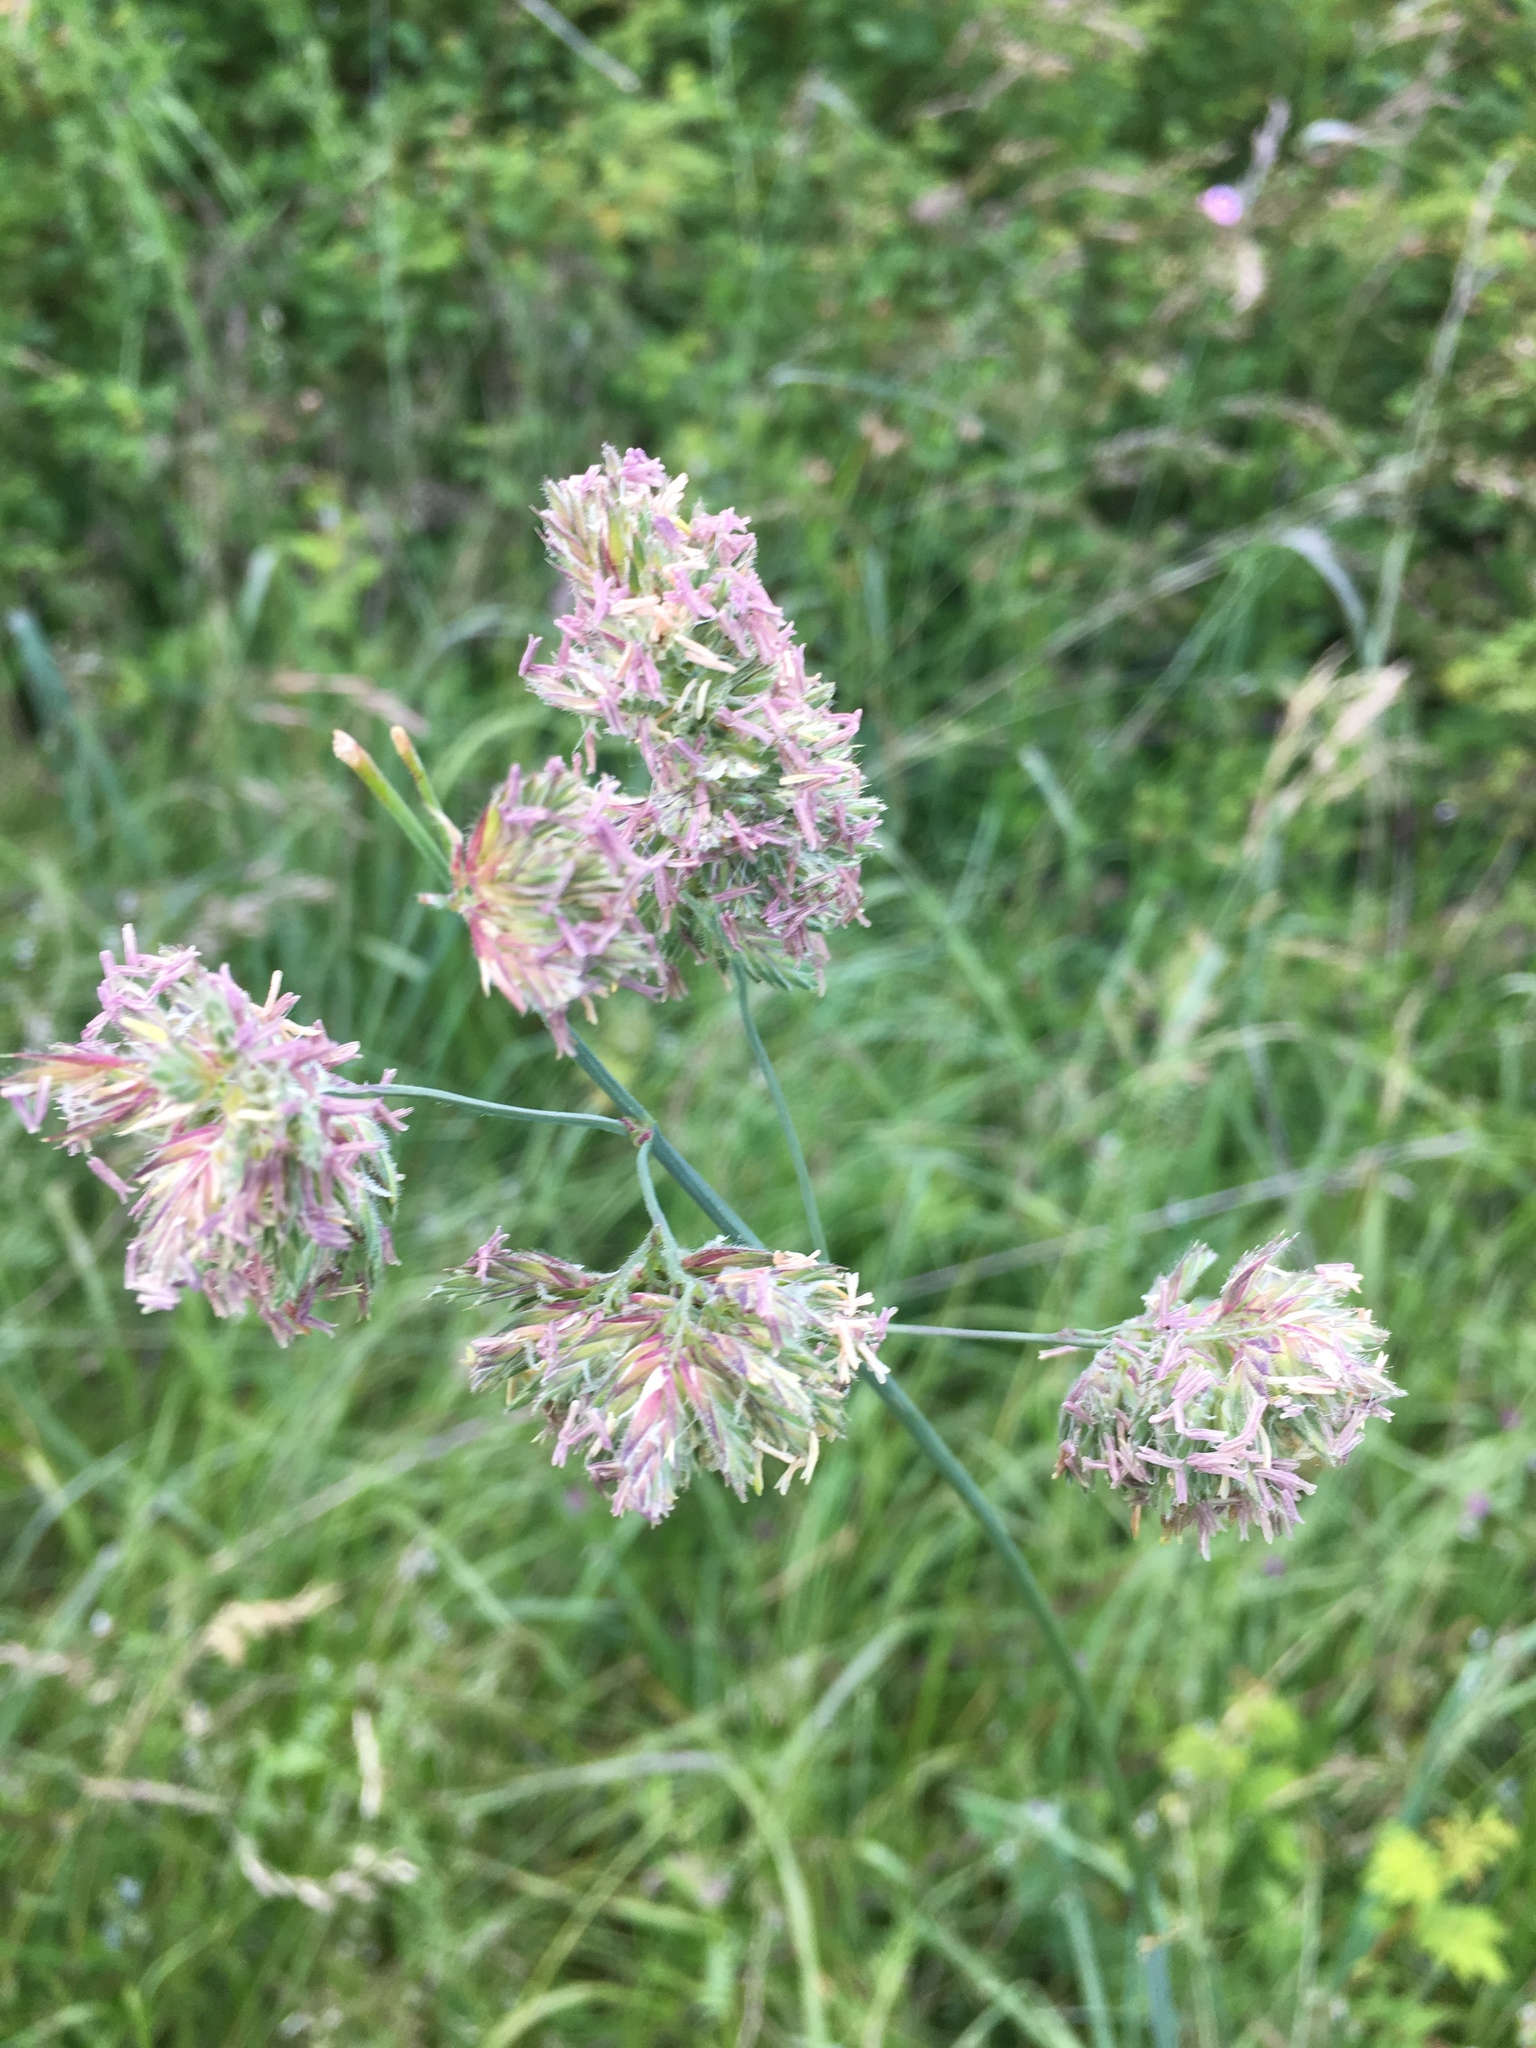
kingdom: Plantae
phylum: Tracheophyta
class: Liliopsida
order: Poales
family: Poaceae
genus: Dactylis
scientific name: Dactylis glomerata
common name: Orchardgrass
